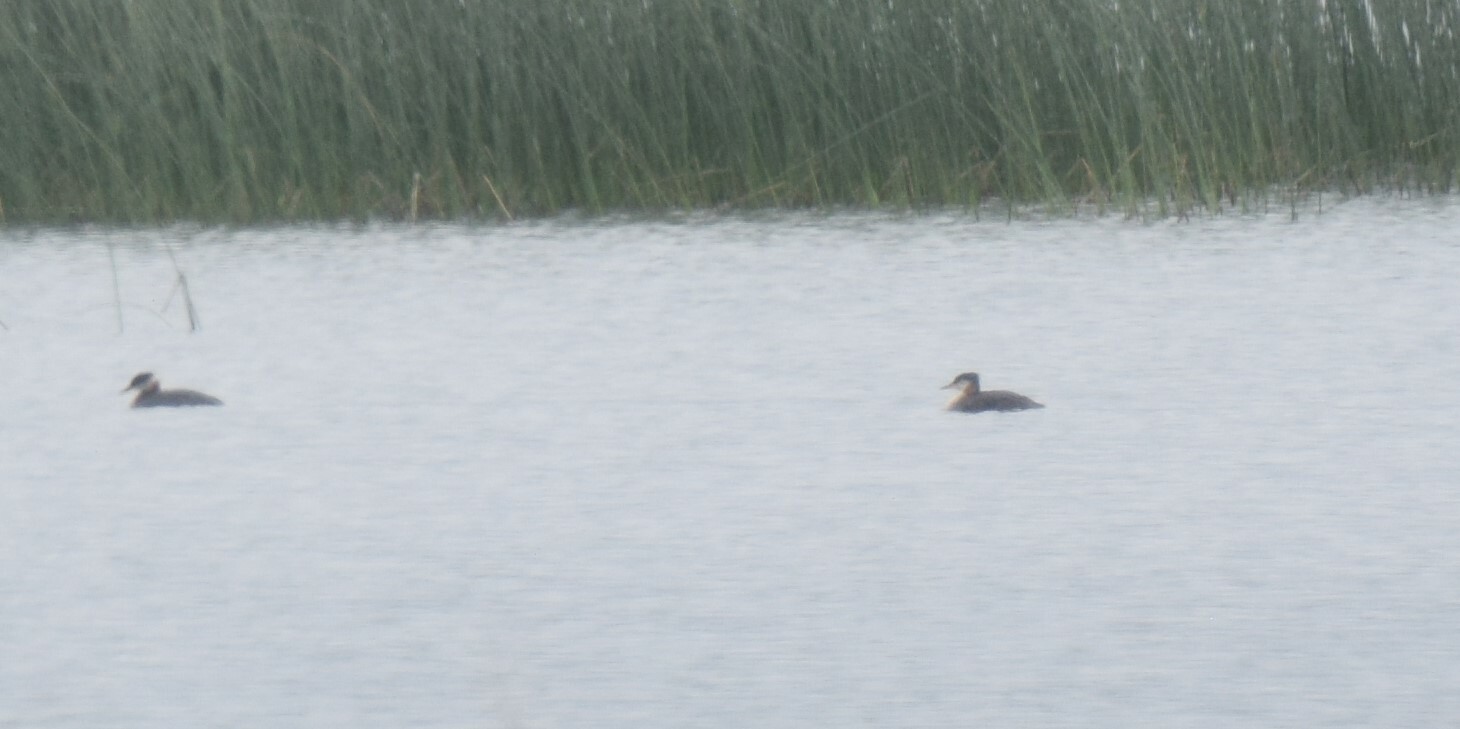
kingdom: Animalia
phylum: Chordata
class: Aves
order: Podicipediformes
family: Podicipedidae
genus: Podiceps
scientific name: Podiceps grisegena
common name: Red-necked grebe
